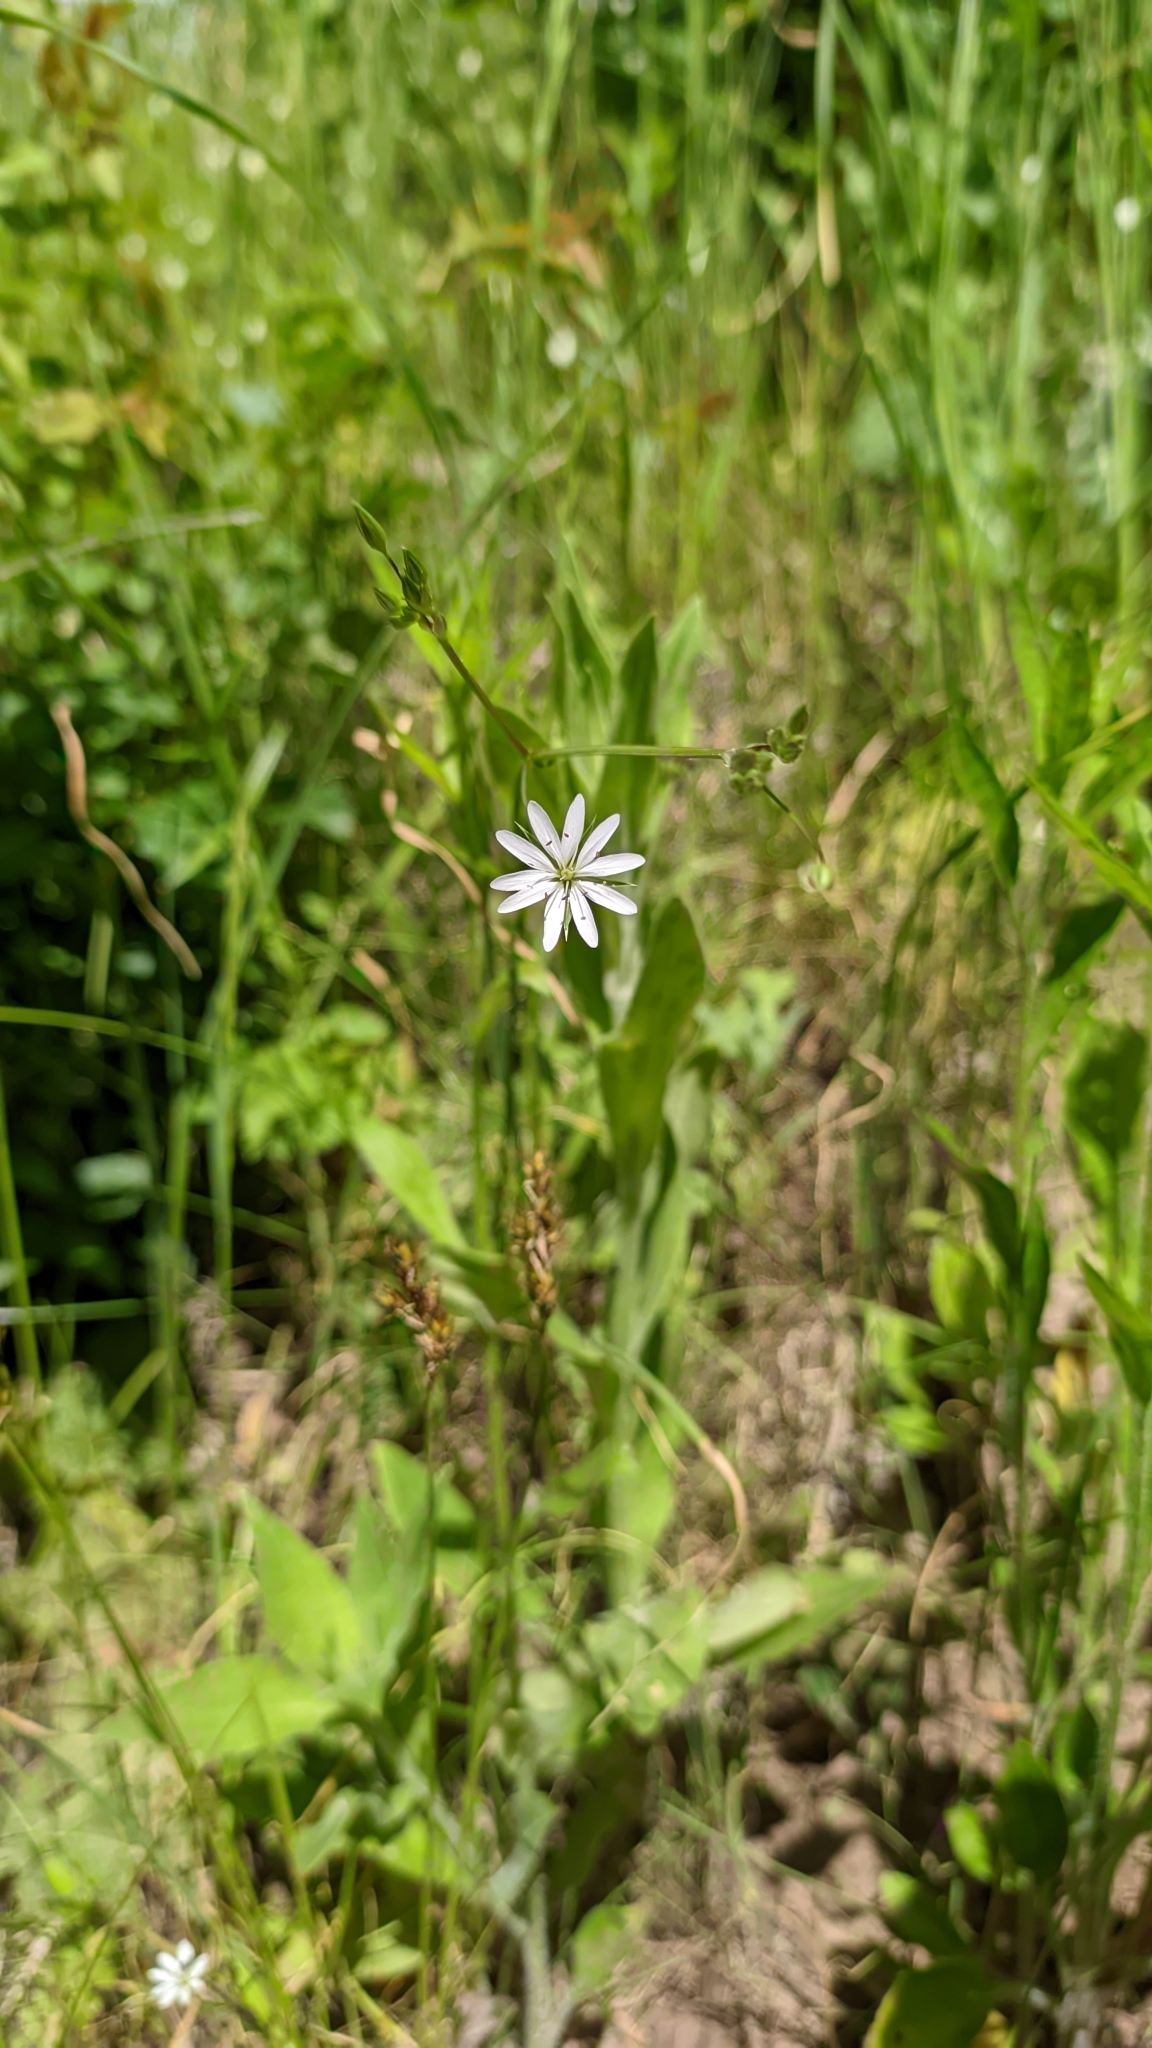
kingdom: Plantae
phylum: Tracheophyta
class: Magnoliopsida
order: Caryophyllales
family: Caryophyllaceae
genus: Stellaria
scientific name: Stellaria graminea
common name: Grass-like starwort
